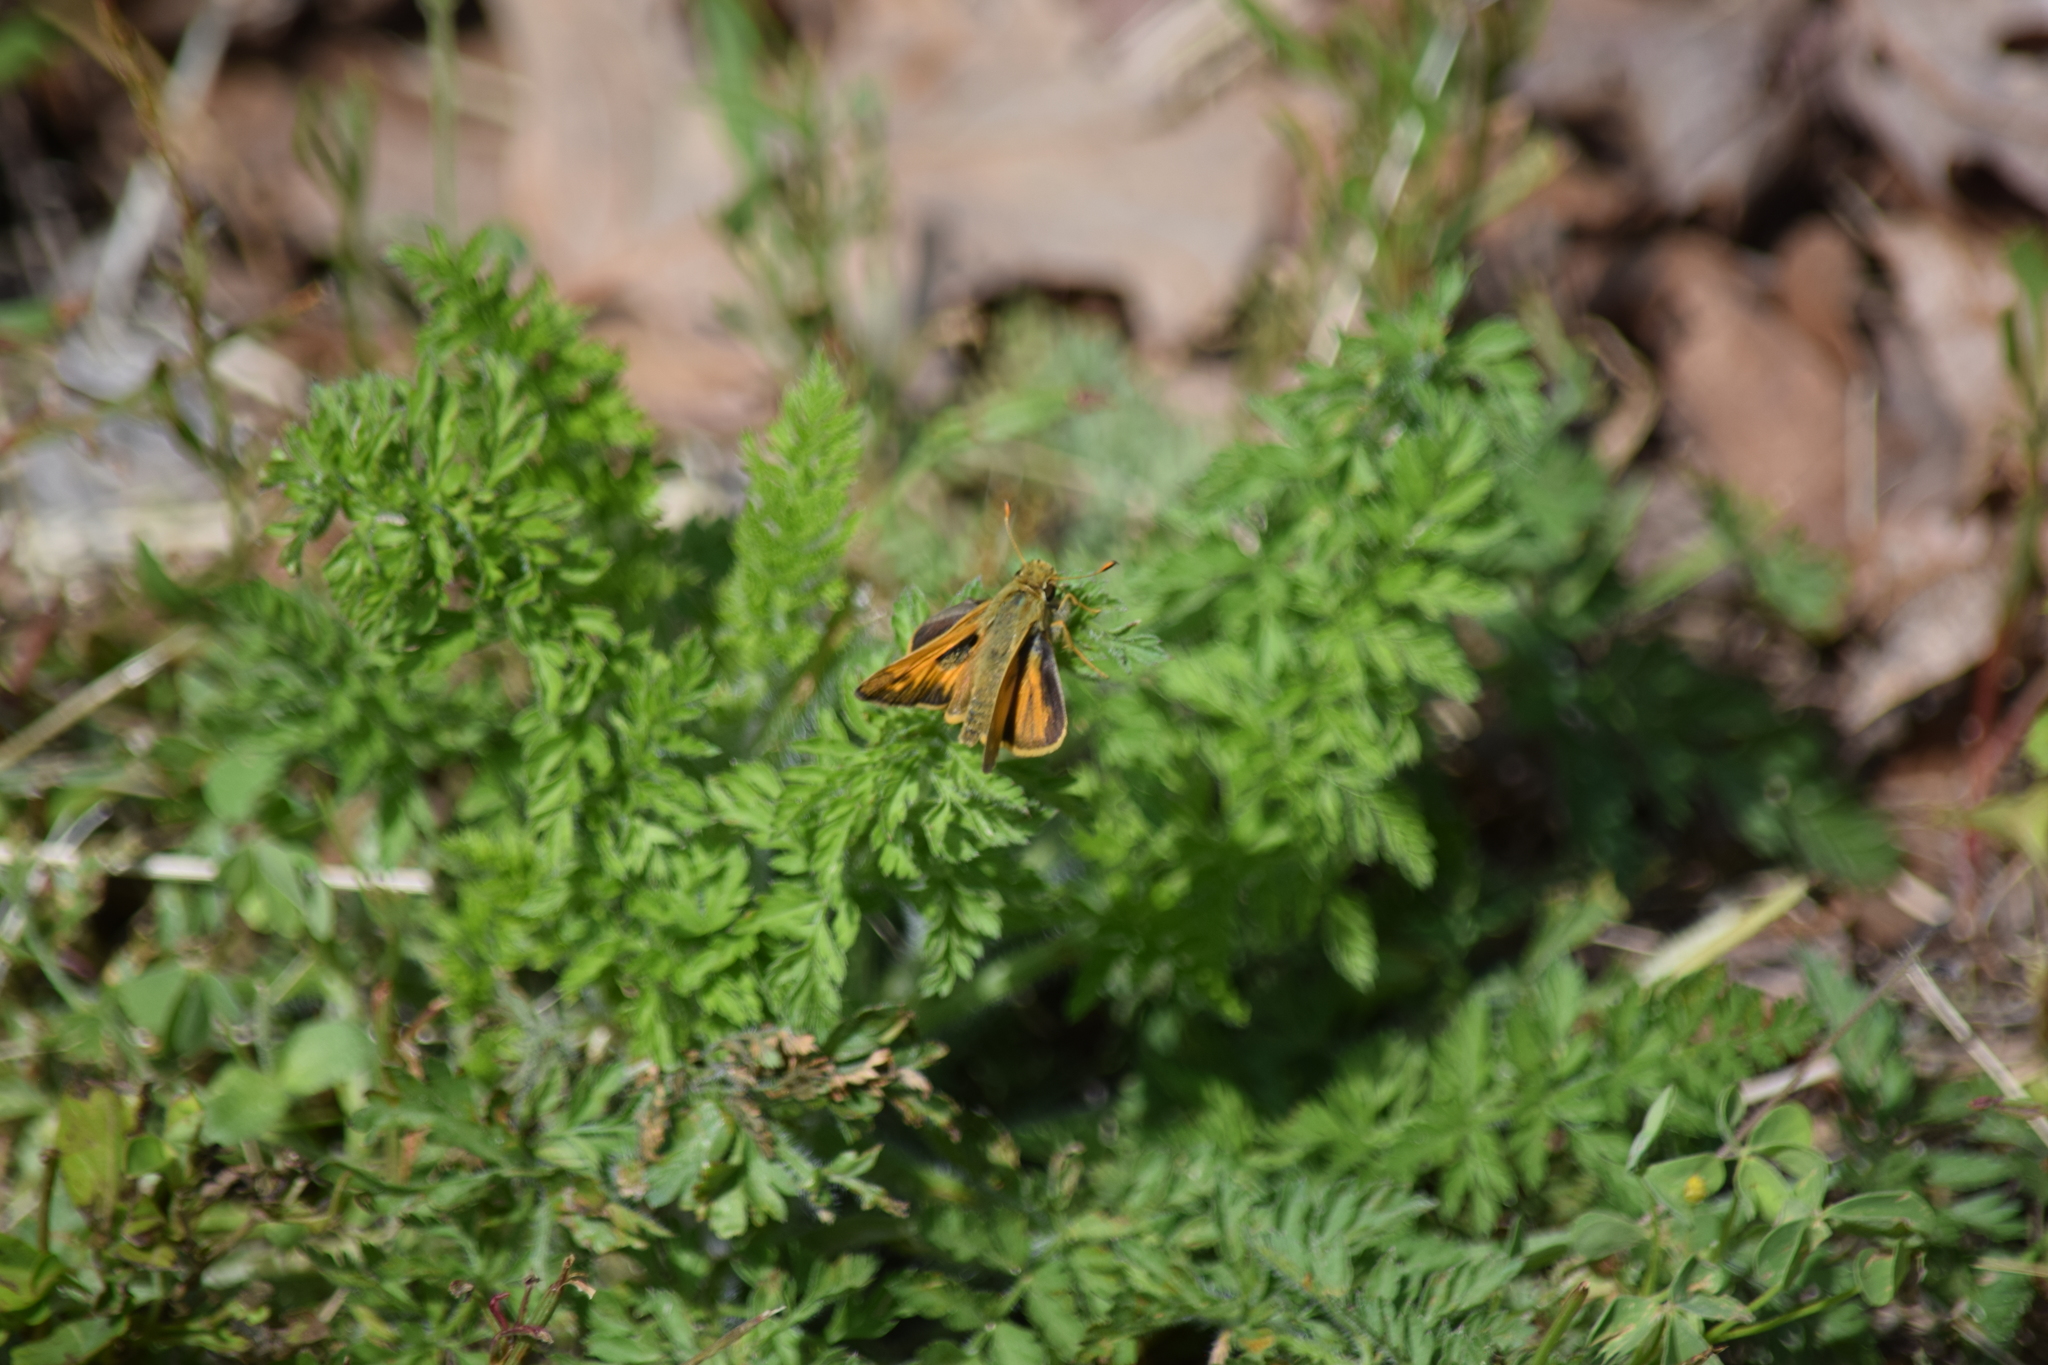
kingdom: Animalia
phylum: Arthropoda
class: Insecta
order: Lepidoptera
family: Hesperiidae
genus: Atalopedes
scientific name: Atalopedes
